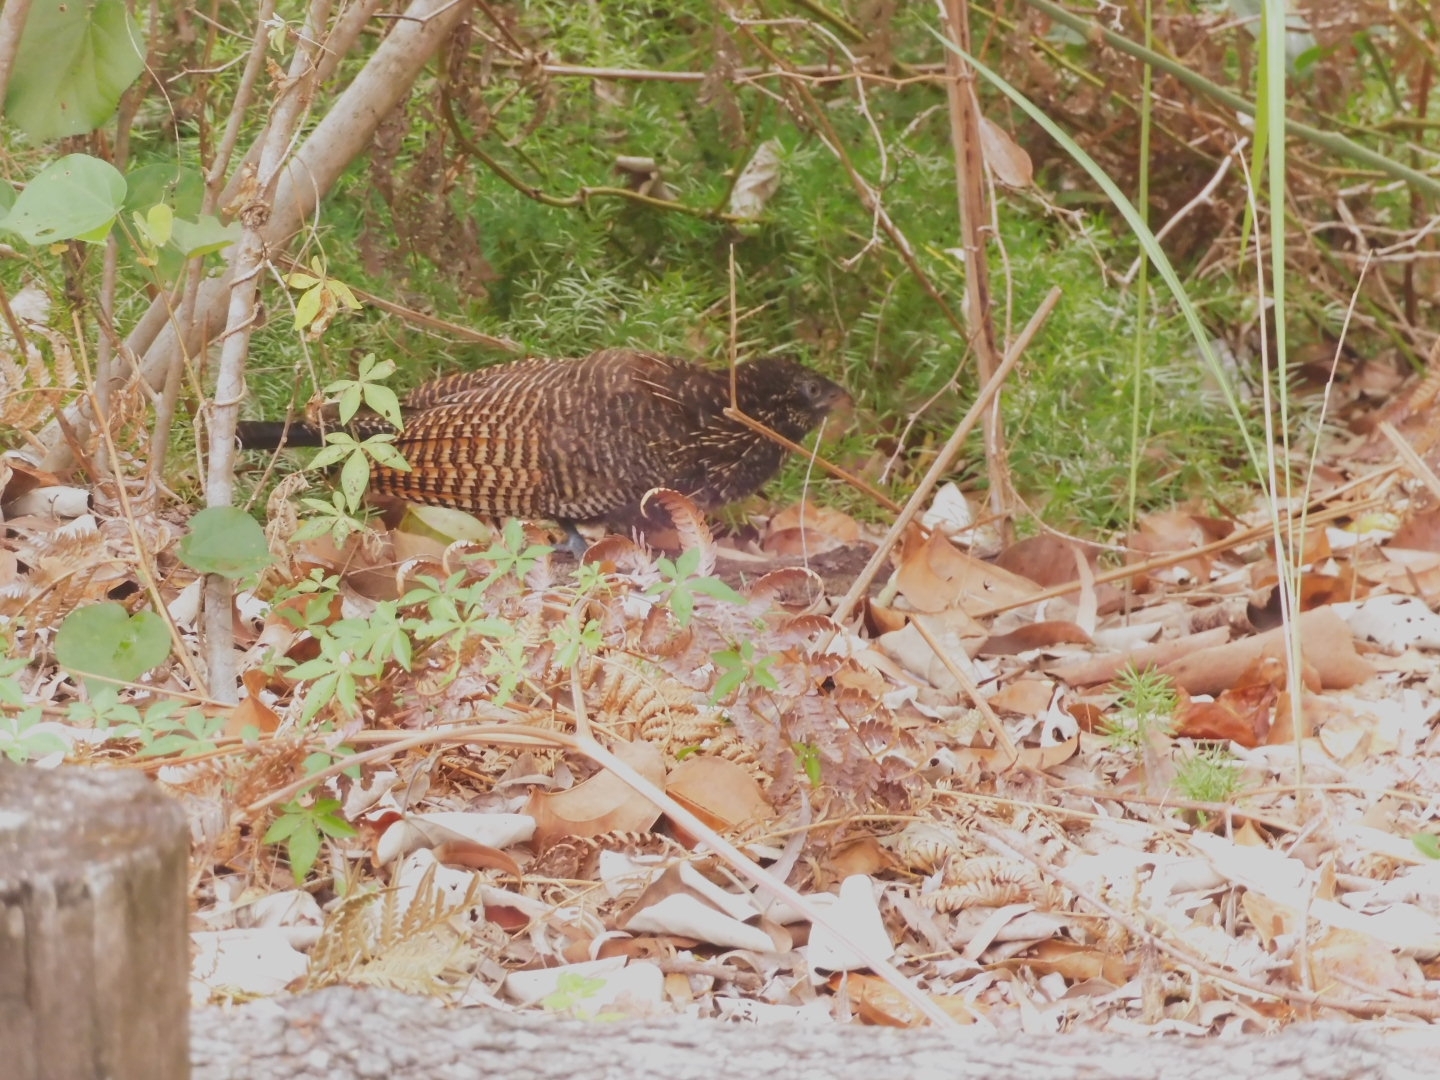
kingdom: Animalia
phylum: Chordata
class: Aves
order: Cuculiformes
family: Cuculidae
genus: Centropus
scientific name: Centropus phasianinus
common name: Pheasant coucal
